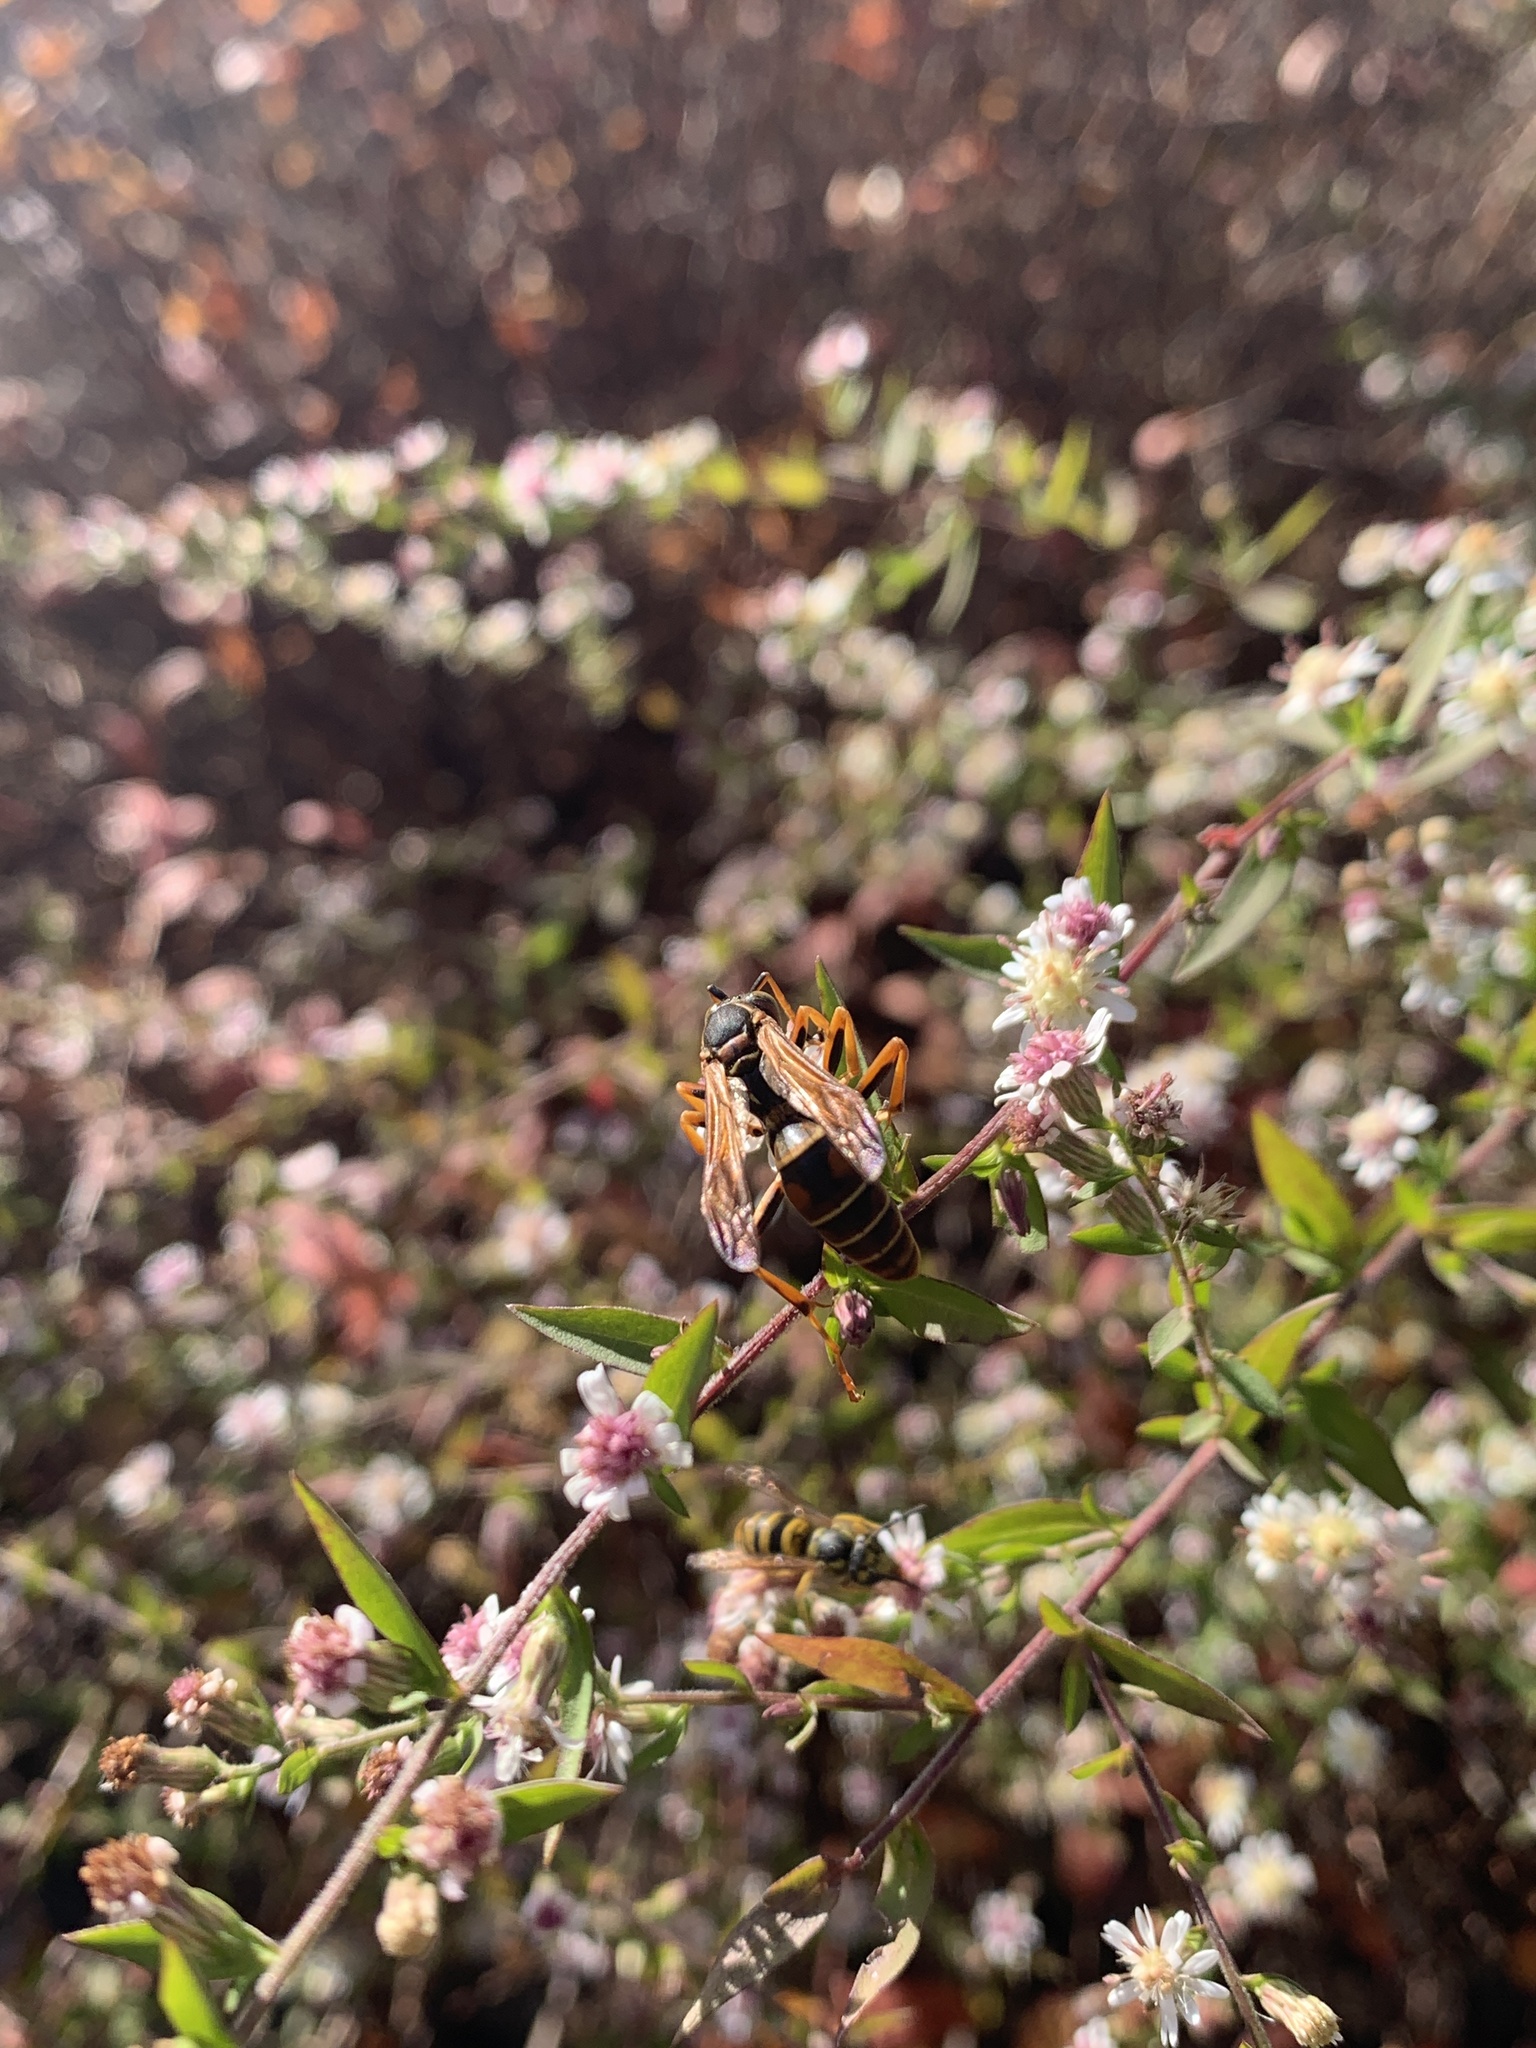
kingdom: Animalia
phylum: Arthropoda
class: Insecta
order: Hymenoptera
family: Eumenidae
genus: Polistes
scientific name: Polistes fuscatus
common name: Dark paper wasp
